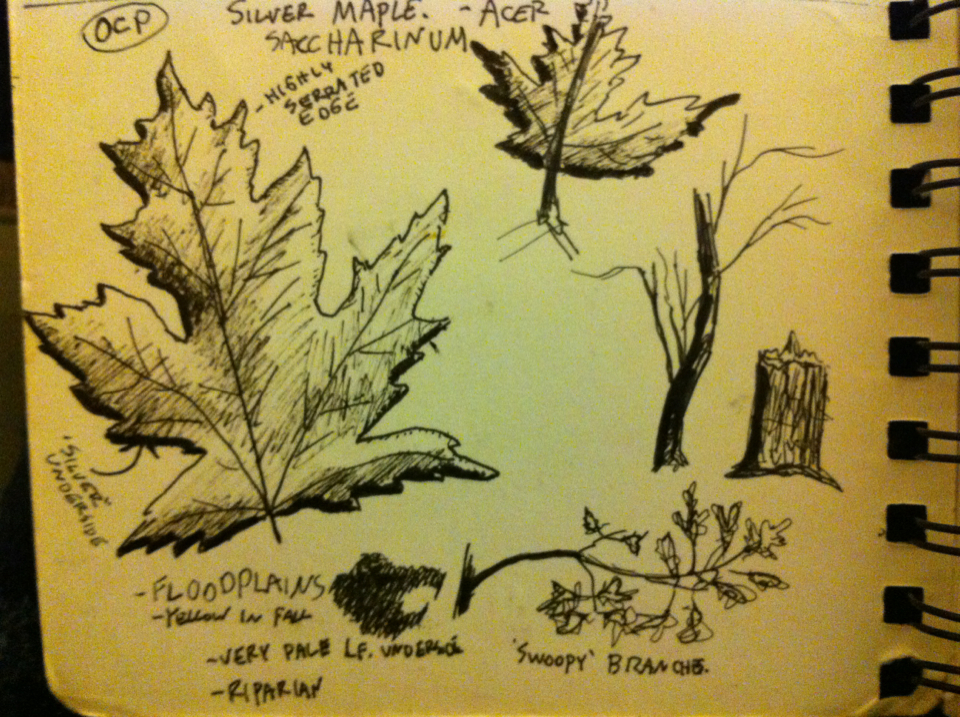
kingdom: Plantae
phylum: Tracheophyta
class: Magnoliopsida
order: Sapindales
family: Sapindaceae
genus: Acer
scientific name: Acer saccharinum
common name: Silver maple
